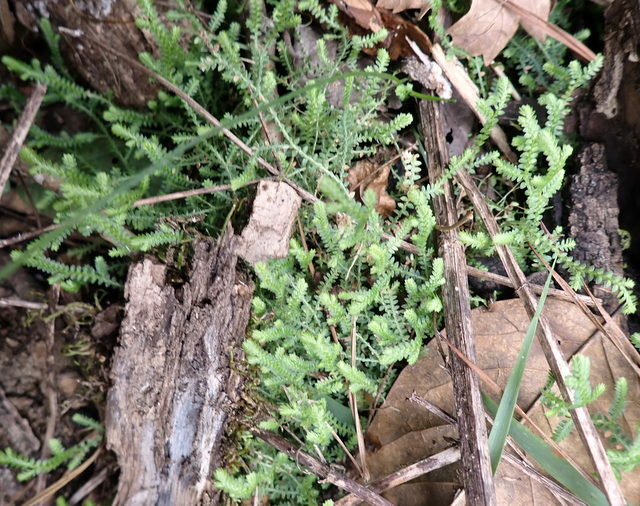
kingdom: Plantae
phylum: Tracheophyta
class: Lycopodiopsida
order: Selaginellales
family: Selaginellaceae
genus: Selaginella
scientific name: Selaginella apoda
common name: Creeping spikemoss
